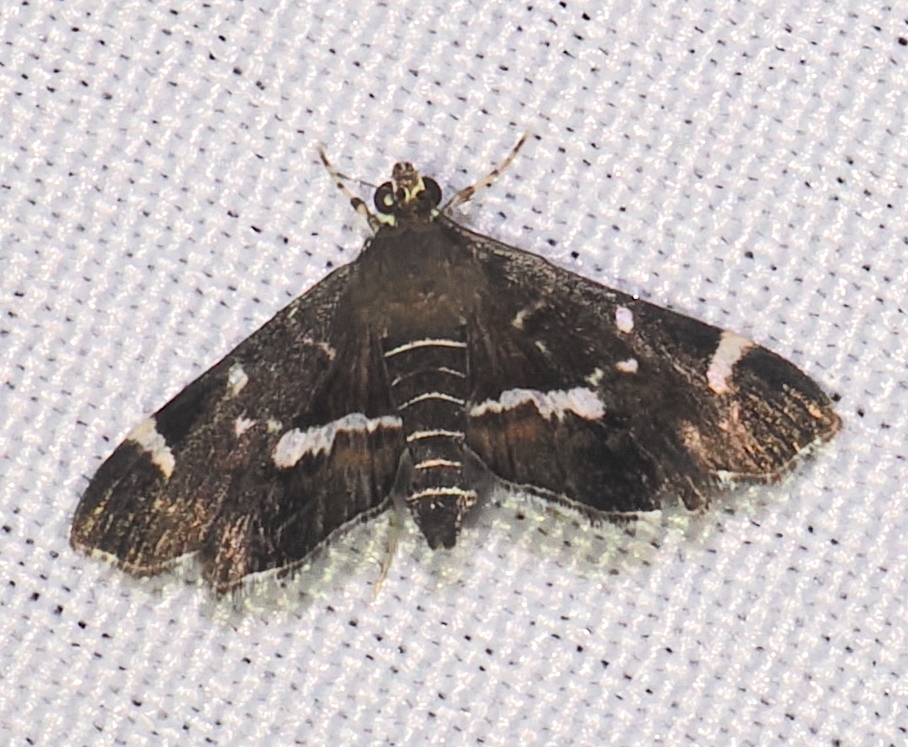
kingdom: Animalia
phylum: Arthropoda
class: Insecta
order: Lepidoptera
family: Crambidae
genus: Hymenia
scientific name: Hymenia perspectalis
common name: Spotted beet webworm
